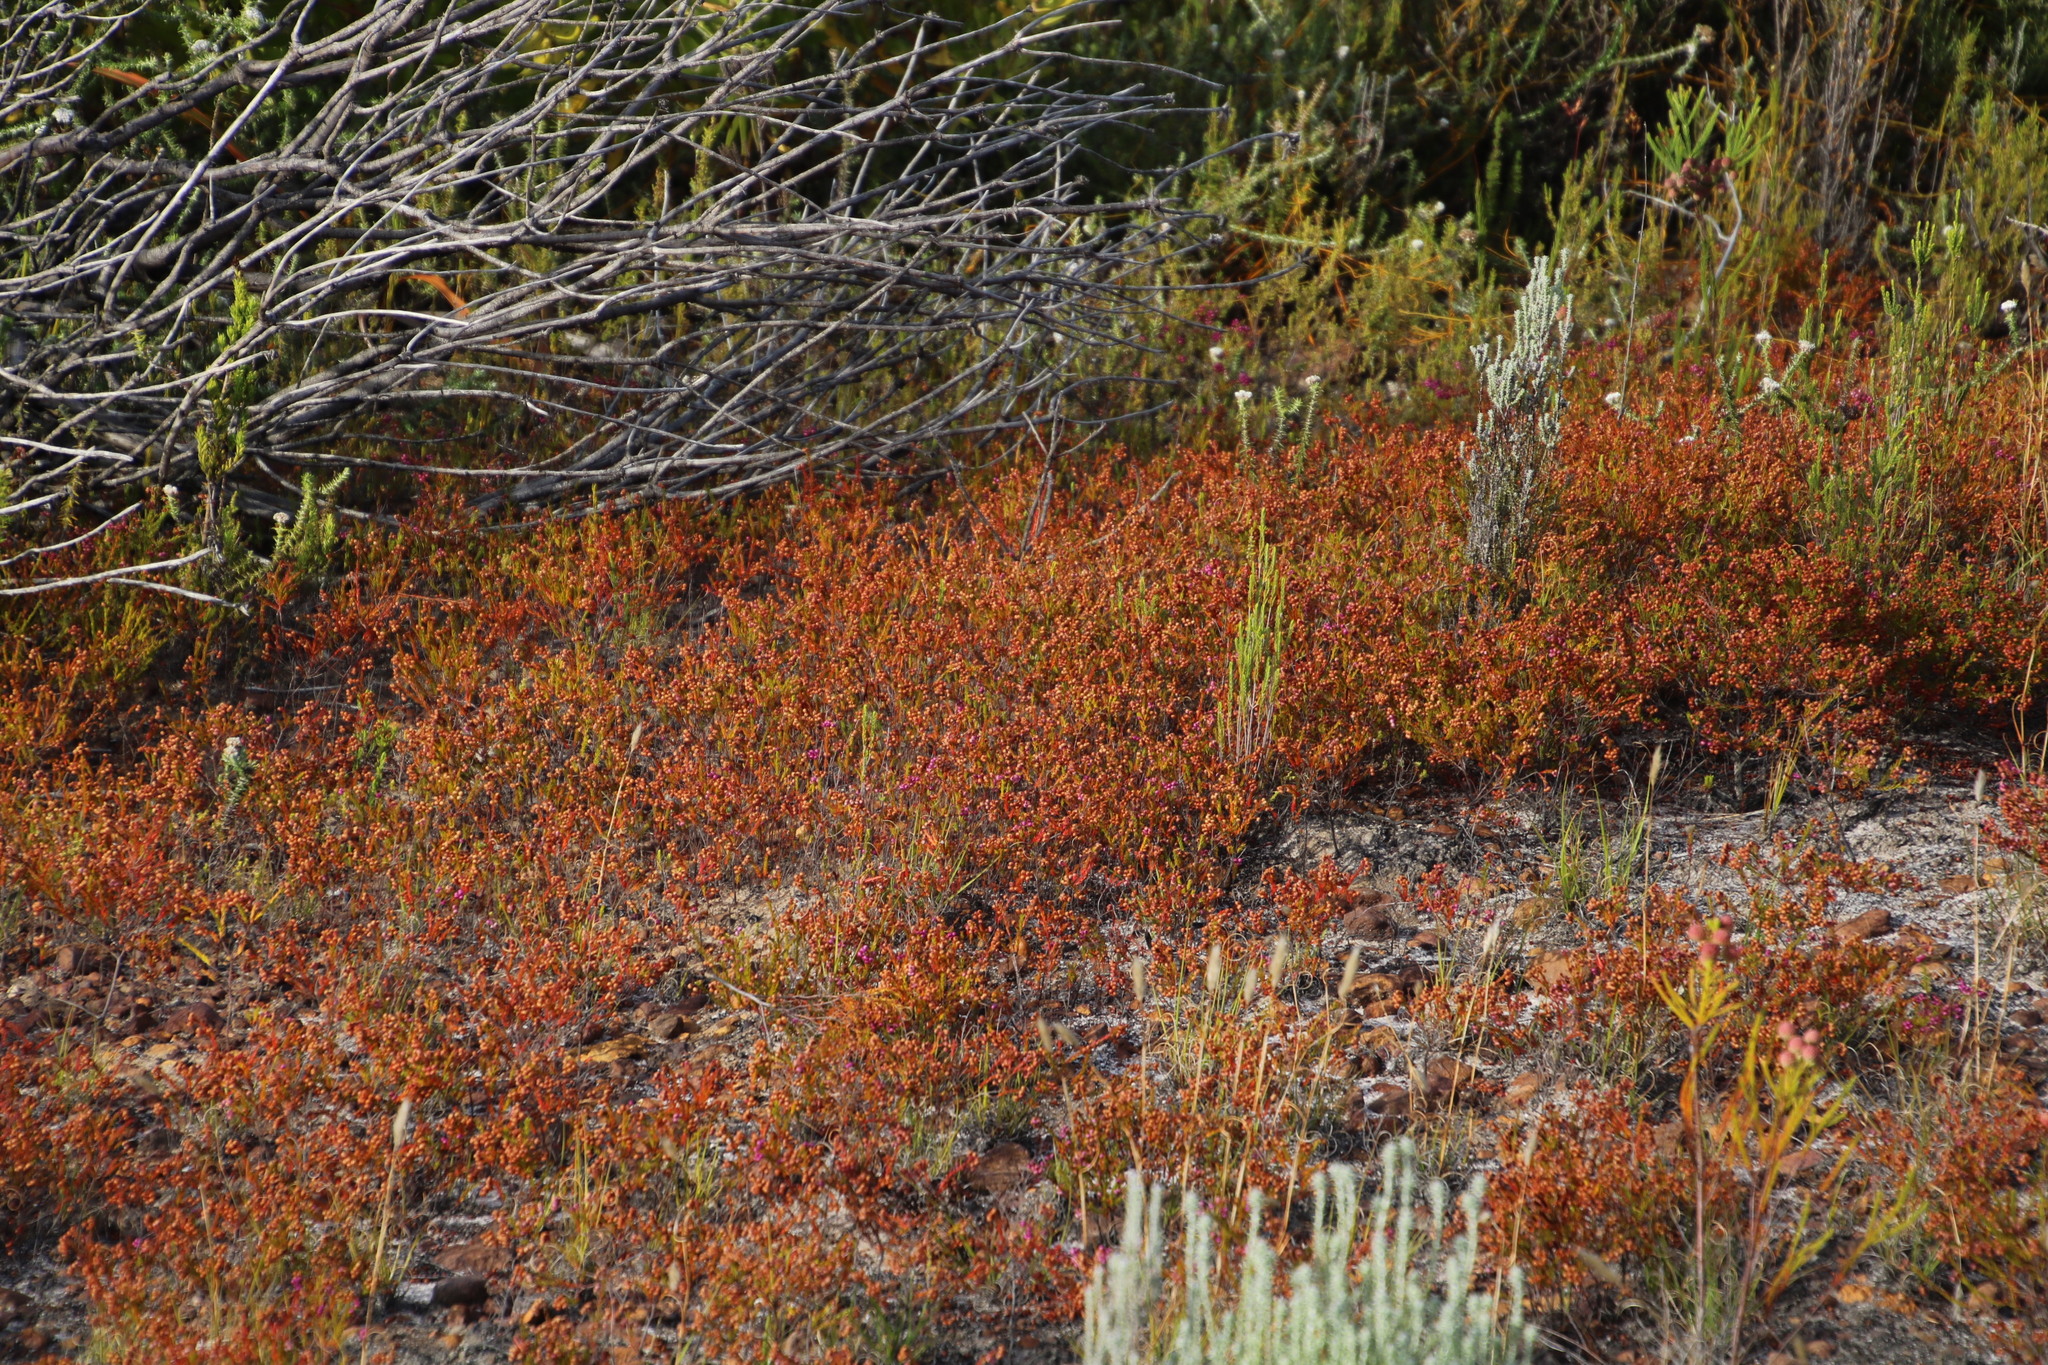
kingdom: Plantae
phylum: Tracheophyta
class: Magnoliopsida
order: Ericales
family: Ericaceae
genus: Erica
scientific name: Erica multumbellifera
